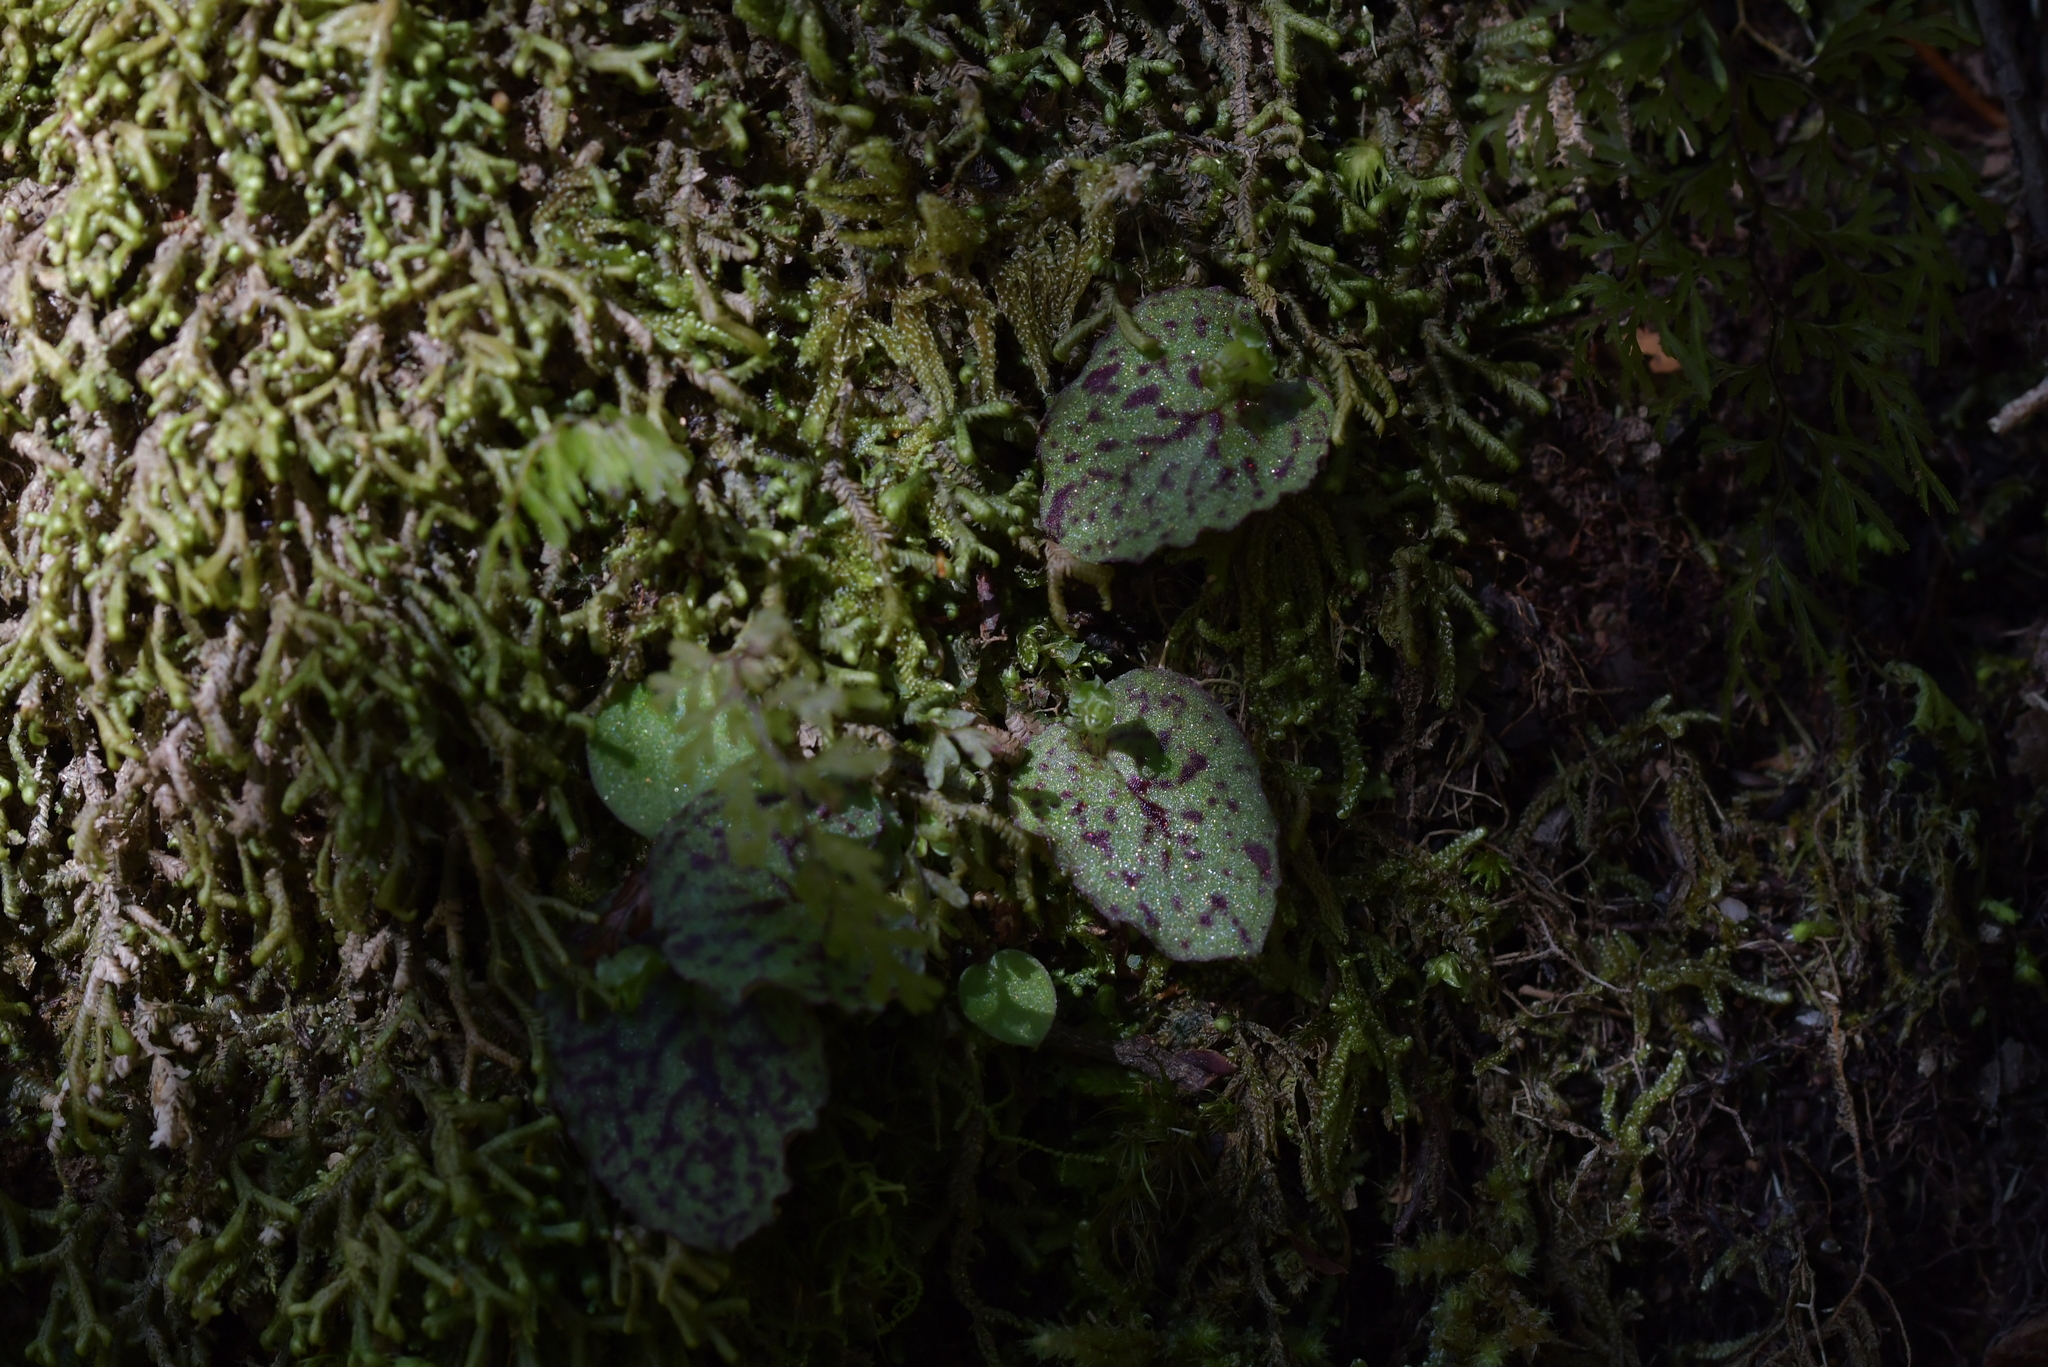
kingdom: Plantae
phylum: Tracheophyta
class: Liliopsida
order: Asparagales
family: Orchidaceae
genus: Corybas
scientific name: Corybas oblongus
